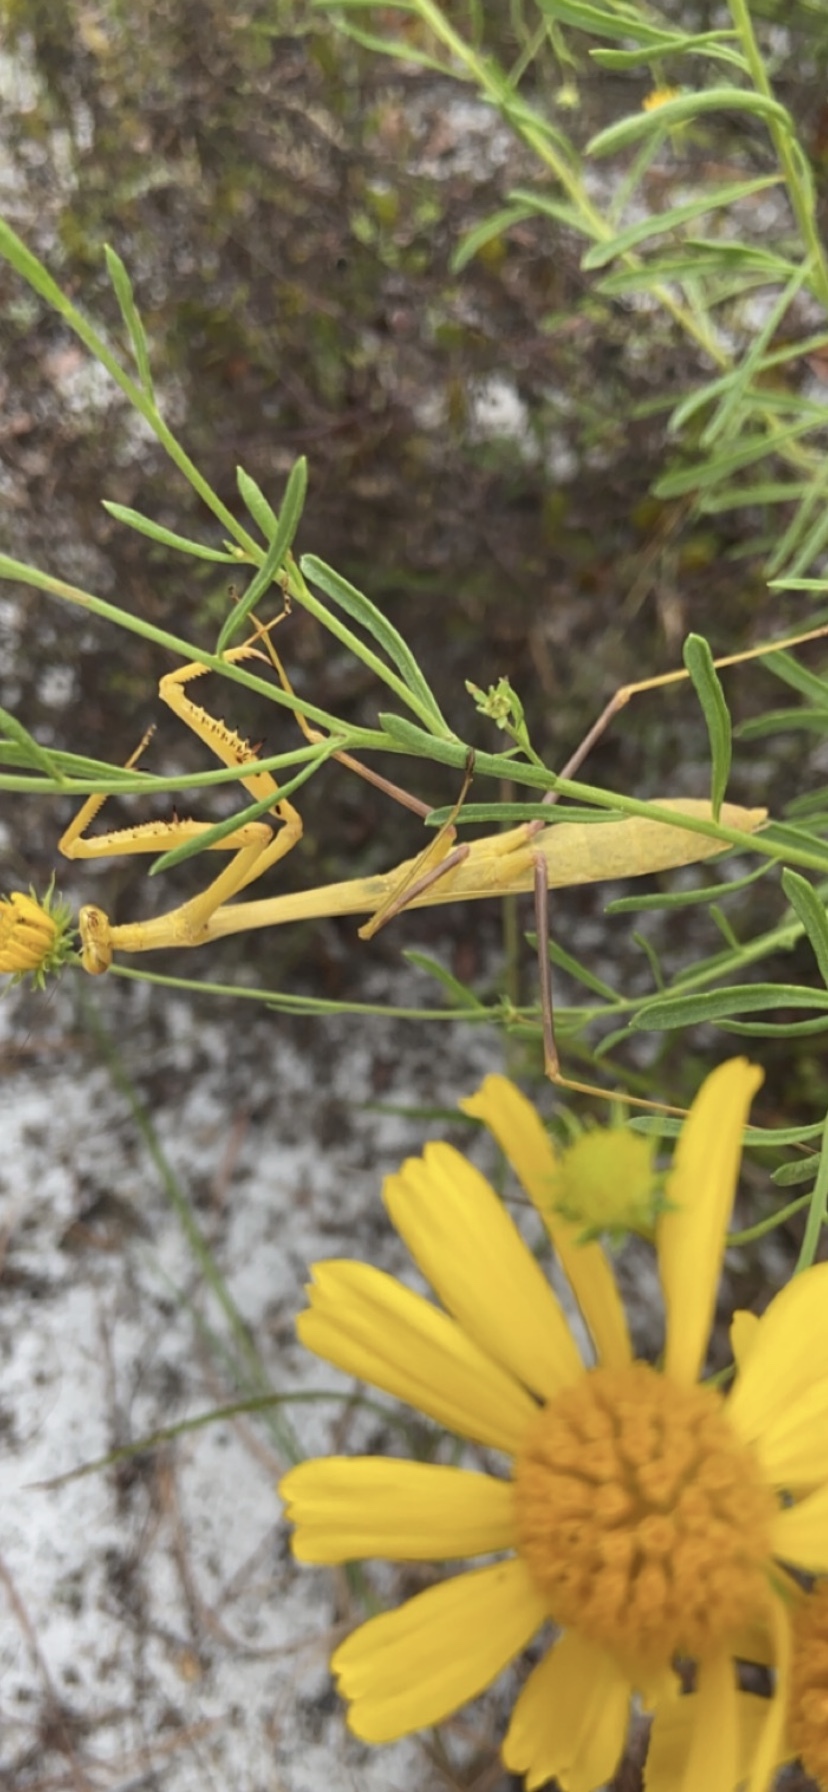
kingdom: Animalia
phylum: Arthropoda
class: Insecta
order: Mantodea
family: Mantidae
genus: Stagmomantis
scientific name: Stagmomantis floridensis
